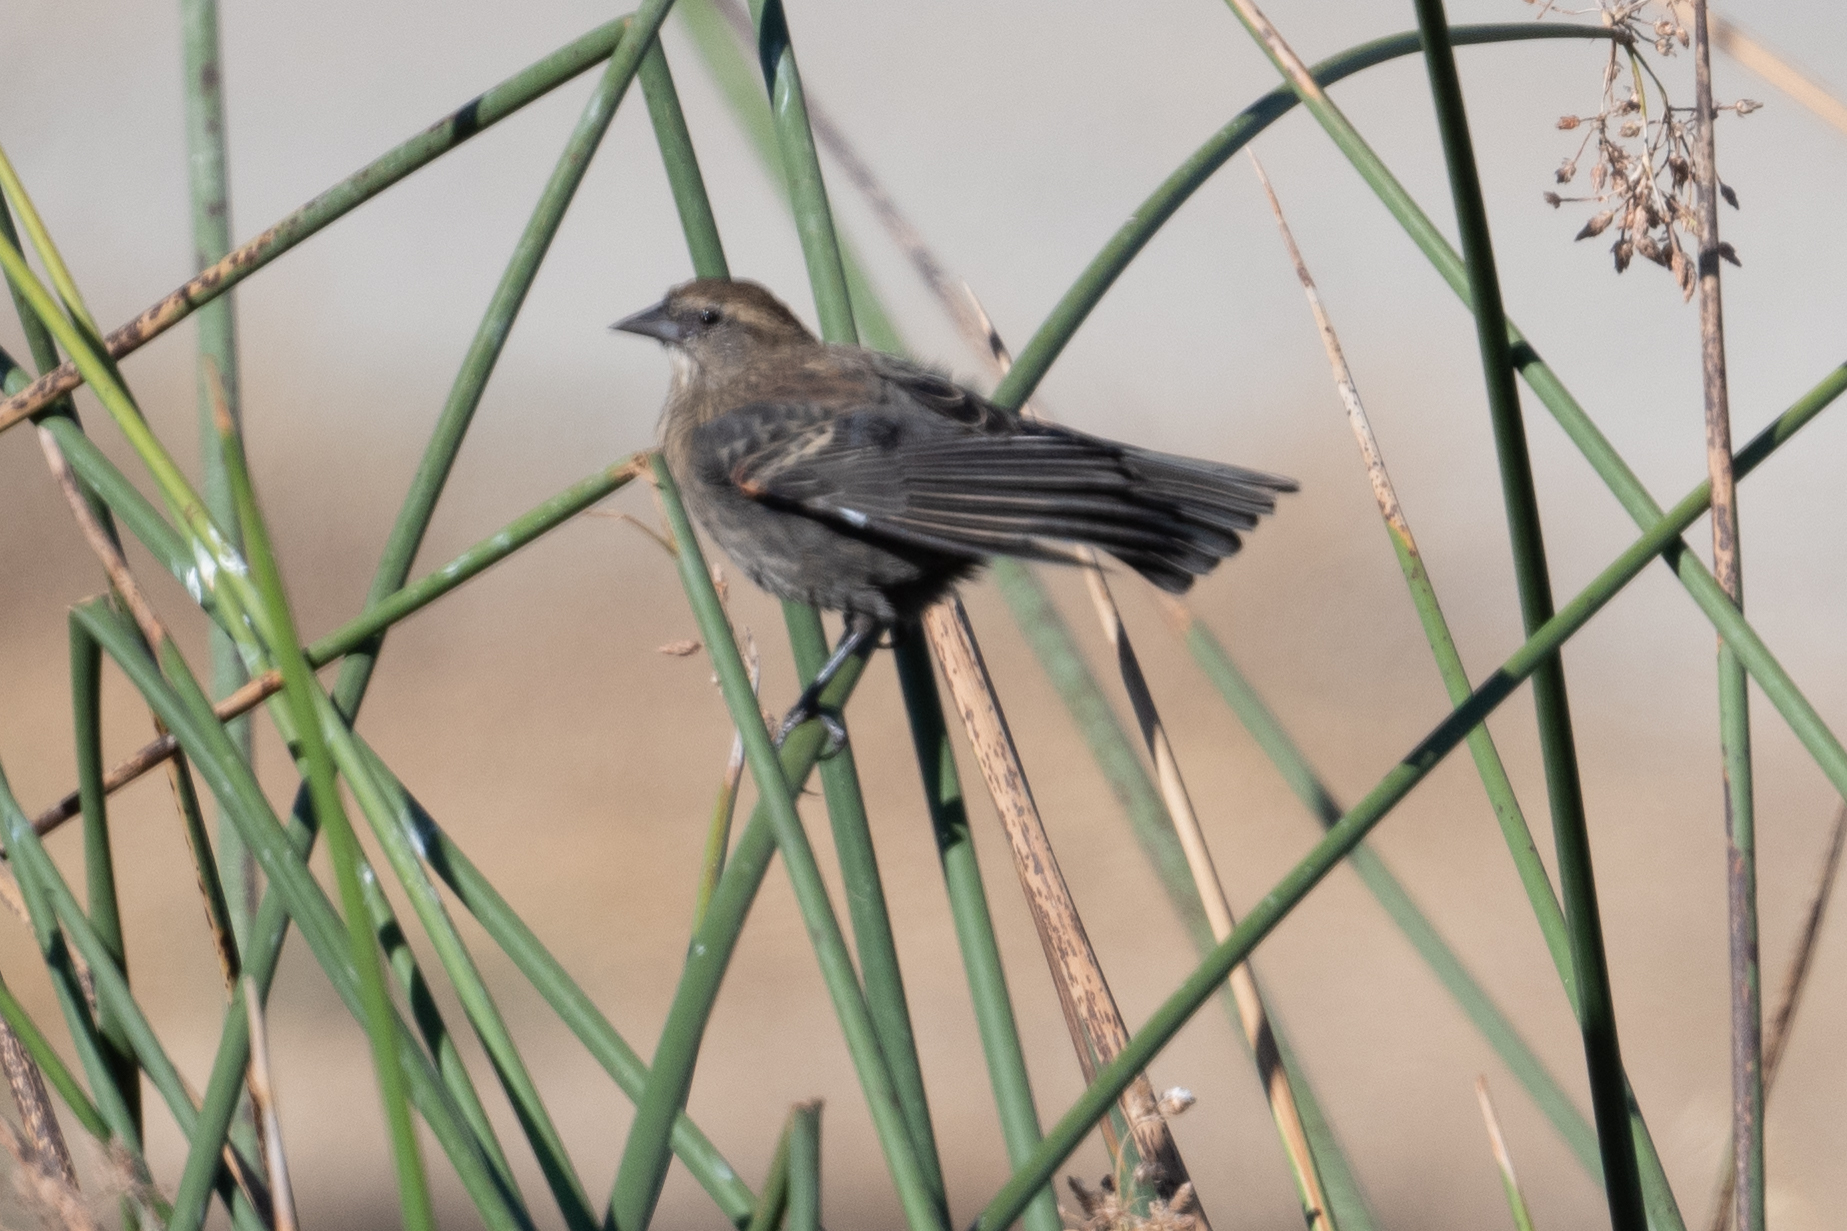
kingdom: Animalia
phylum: Chordata
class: Aves
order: Passeriformes
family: Icteridae
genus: Agelaius
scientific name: Agelaius phoeniceus
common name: Red-winged blackbird
